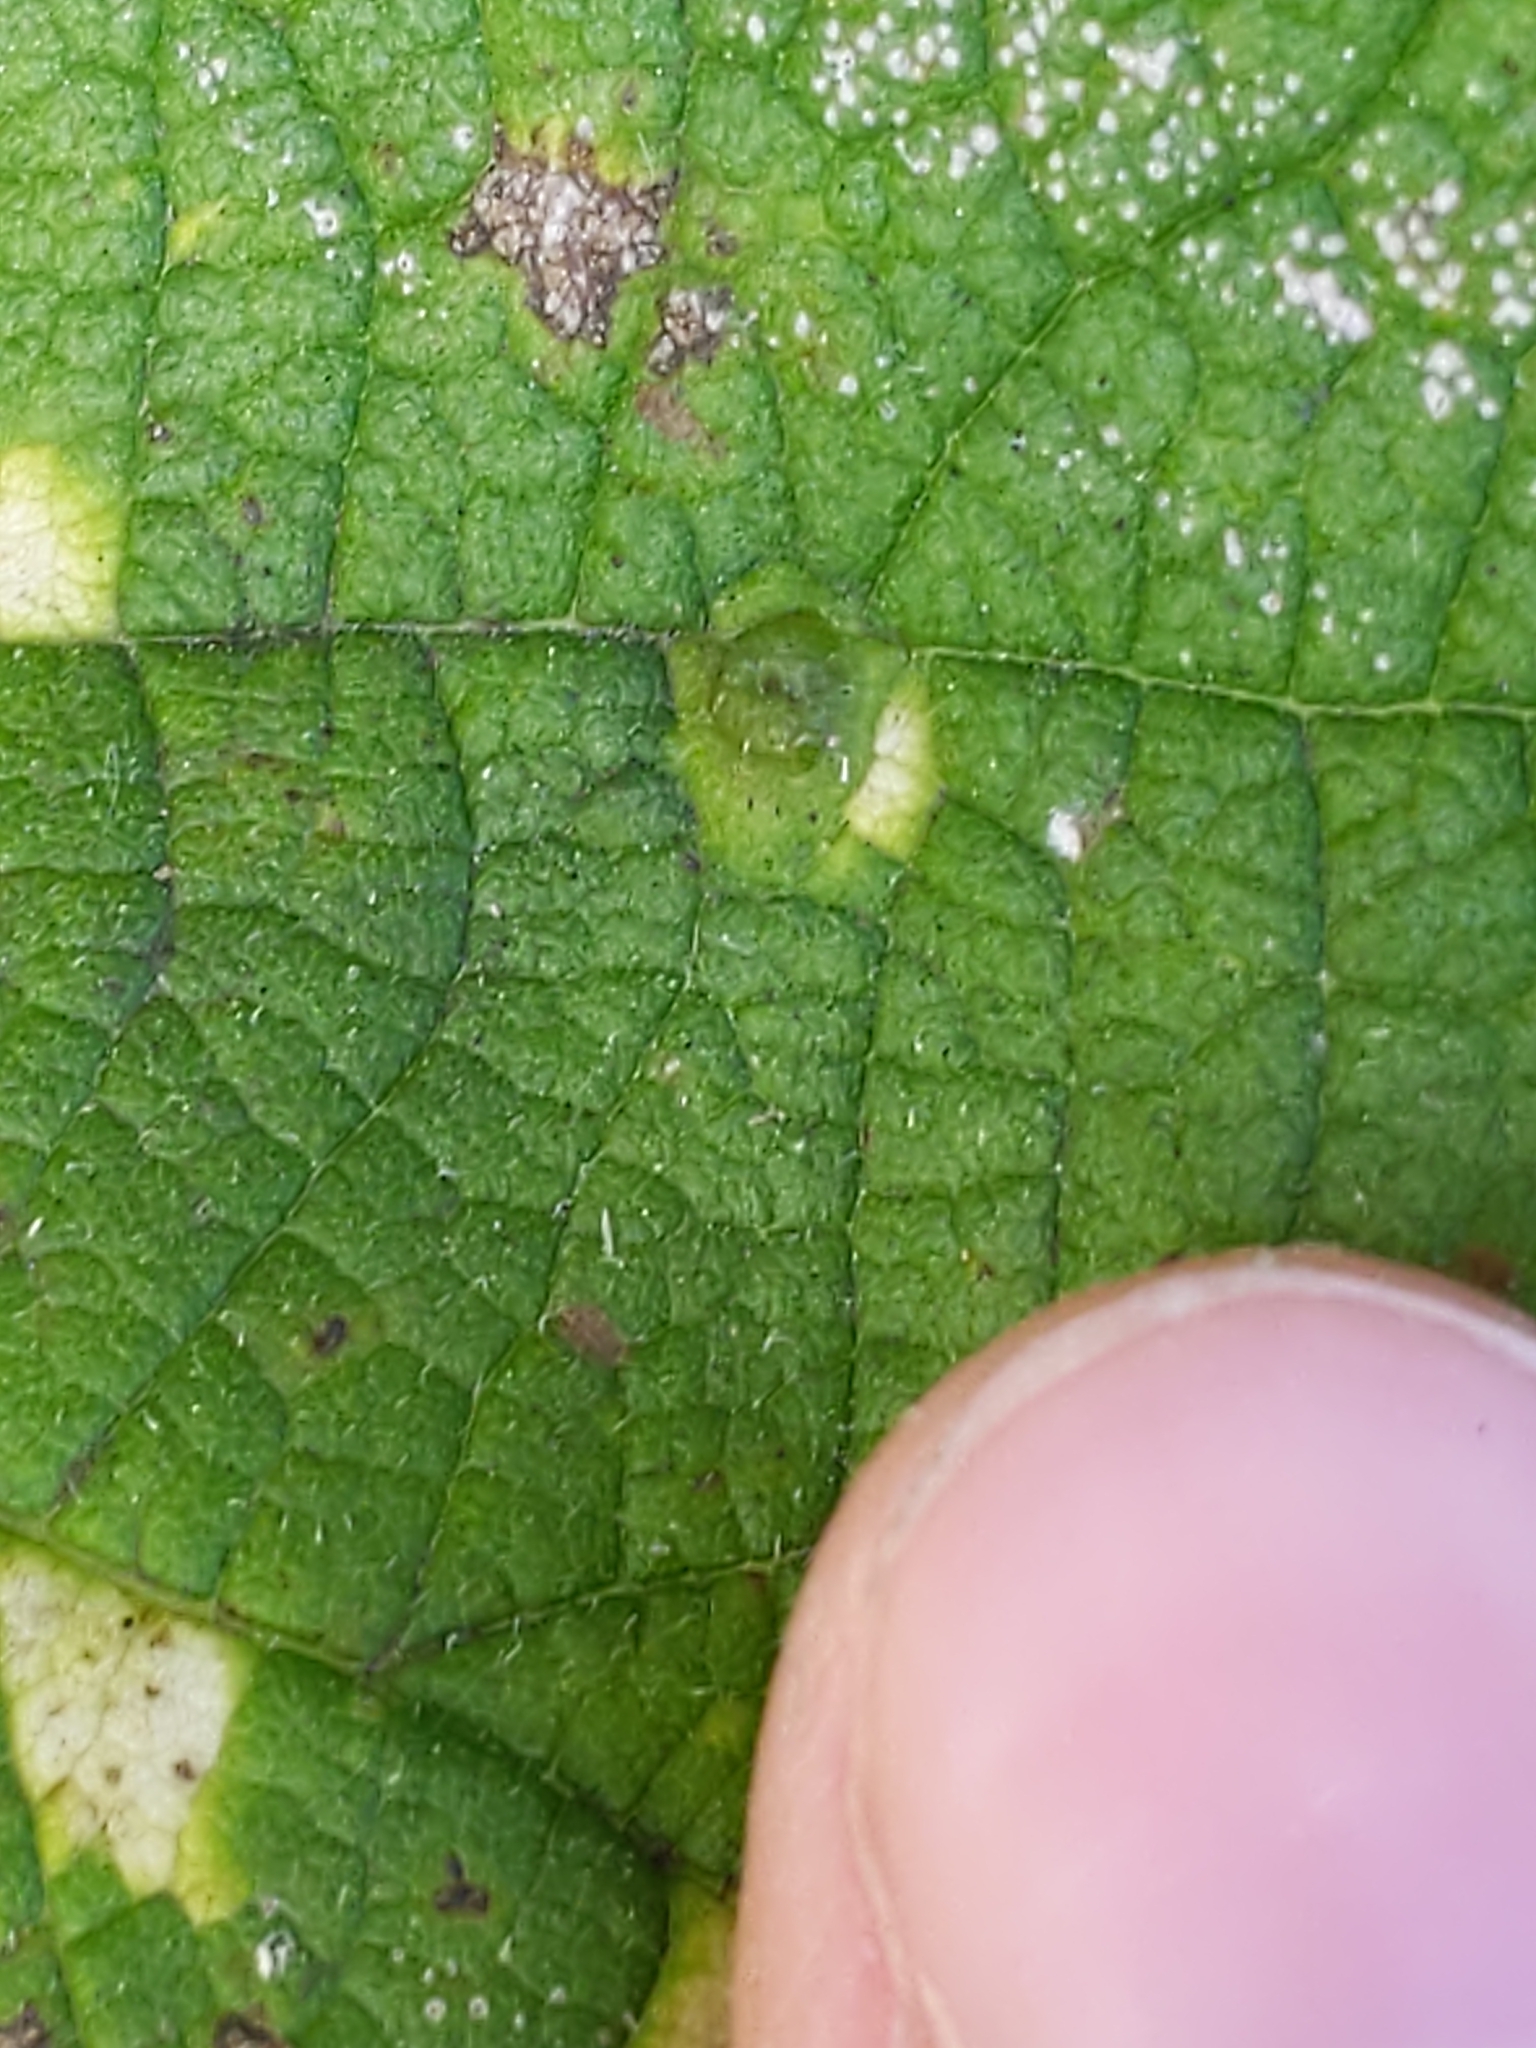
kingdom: Animalia
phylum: Arthropoda
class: Insecta
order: Hemiptera
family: Aphalaridae
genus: Pachypsylla
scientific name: Pachypsylla celtidisvesicula
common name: Hackberry blister gall psyllid
